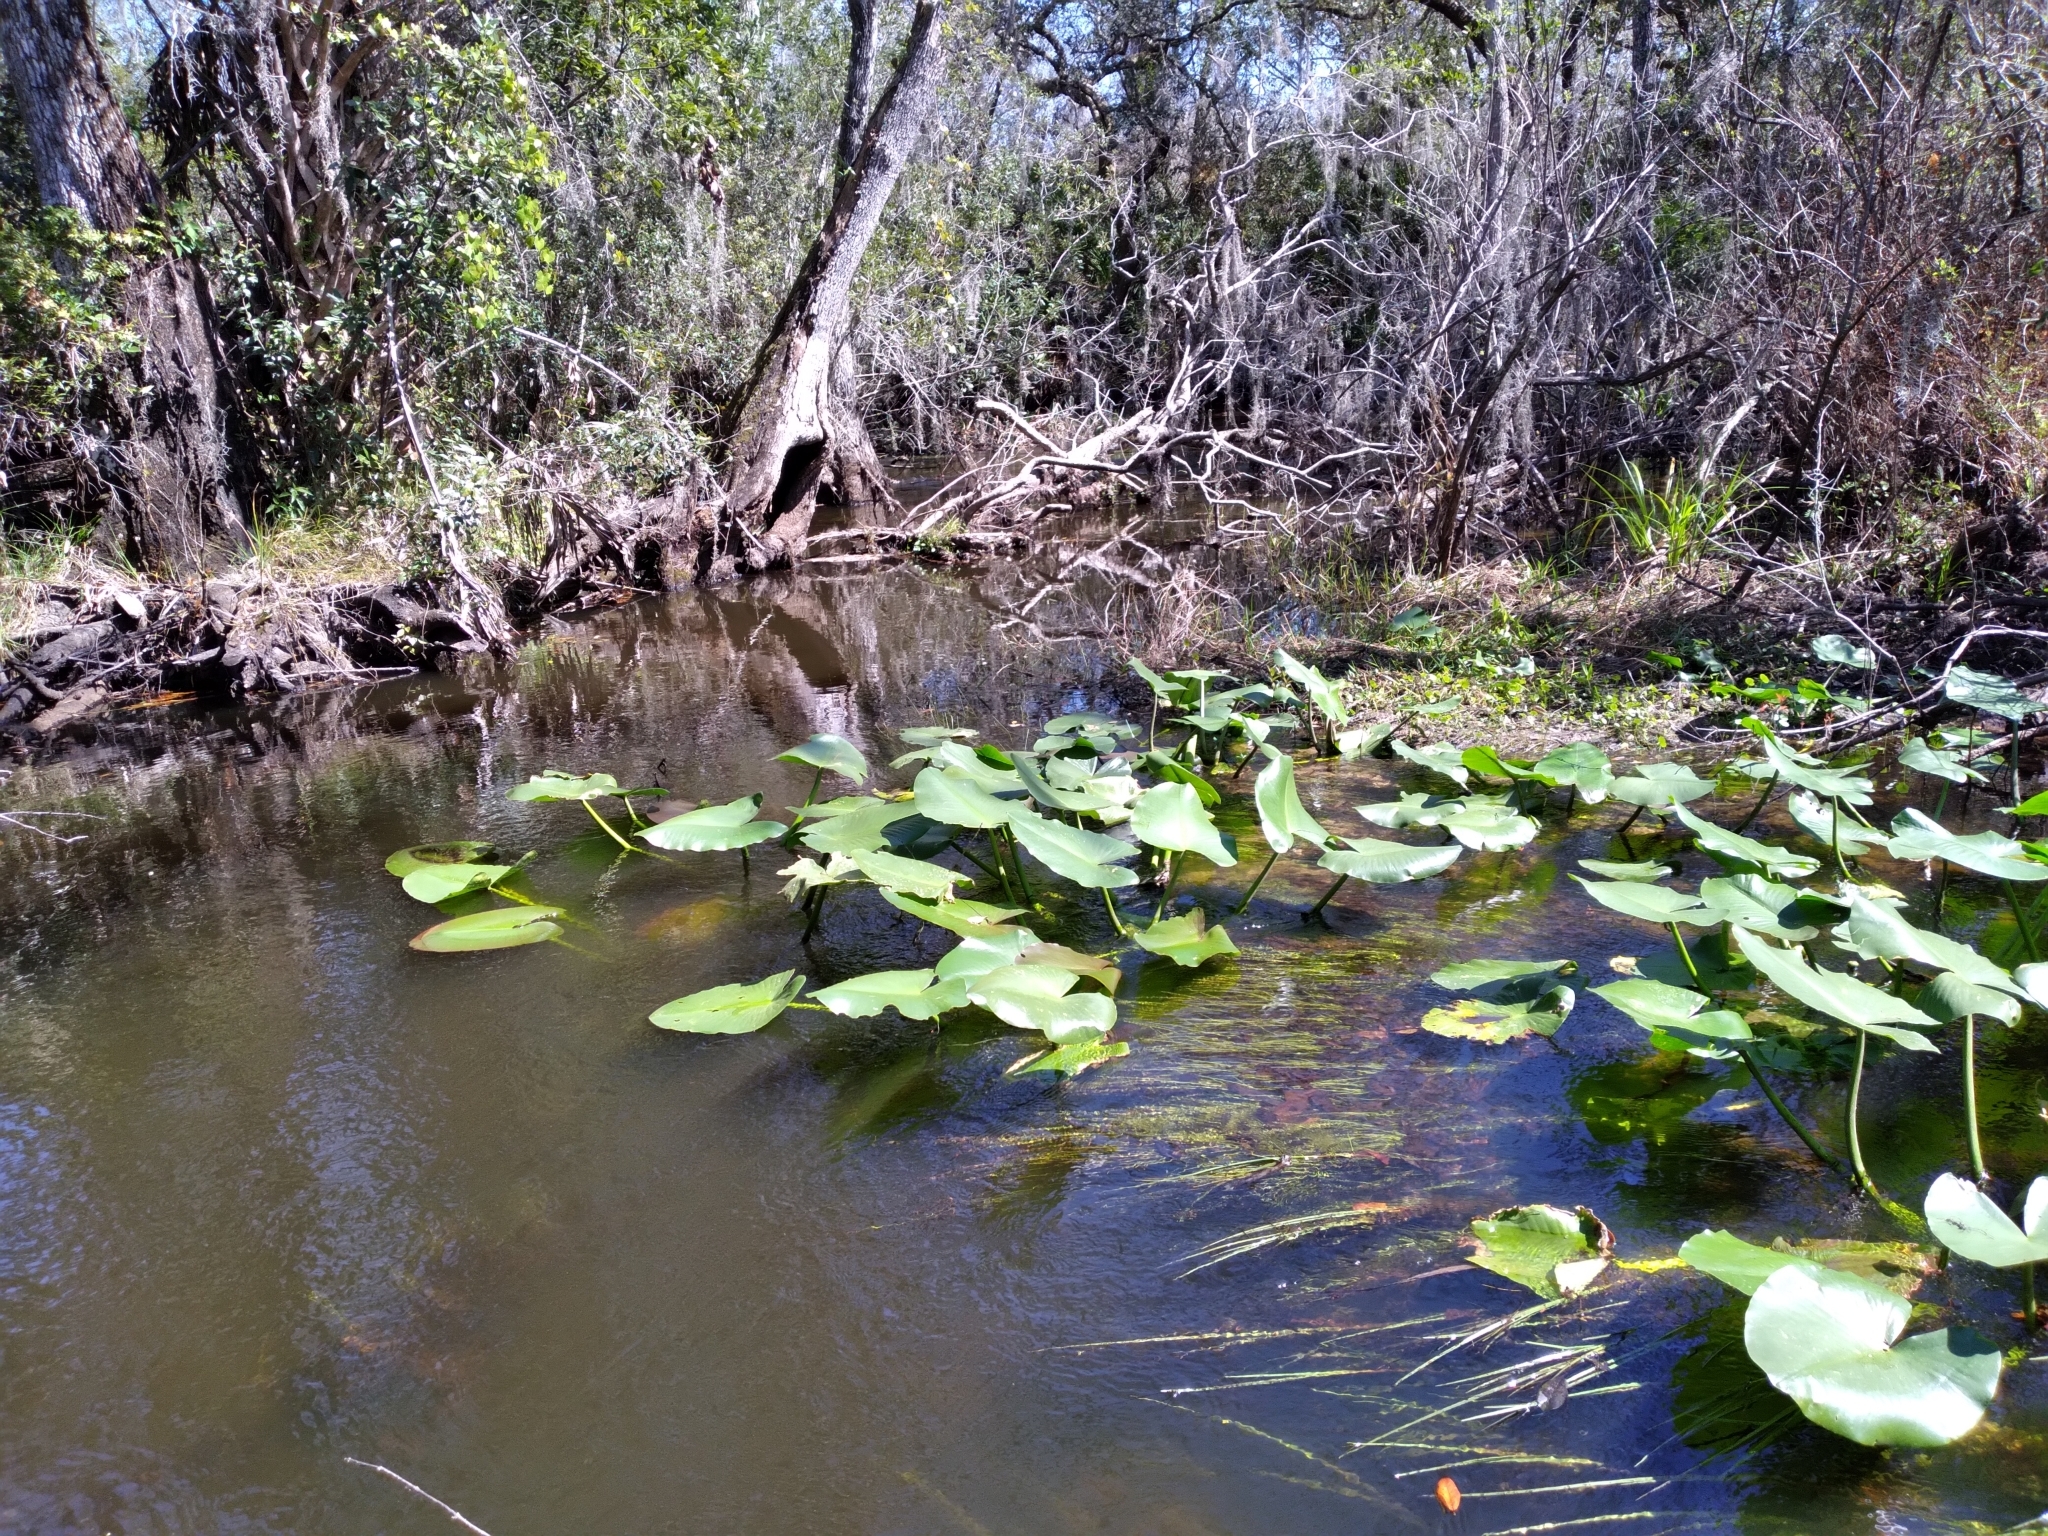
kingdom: Plantae
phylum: Tracheophyta
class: Liliopsida
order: Poales
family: Cyperaceae
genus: Schoenoplectus
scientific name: Schoenoplectus etuberculatus
